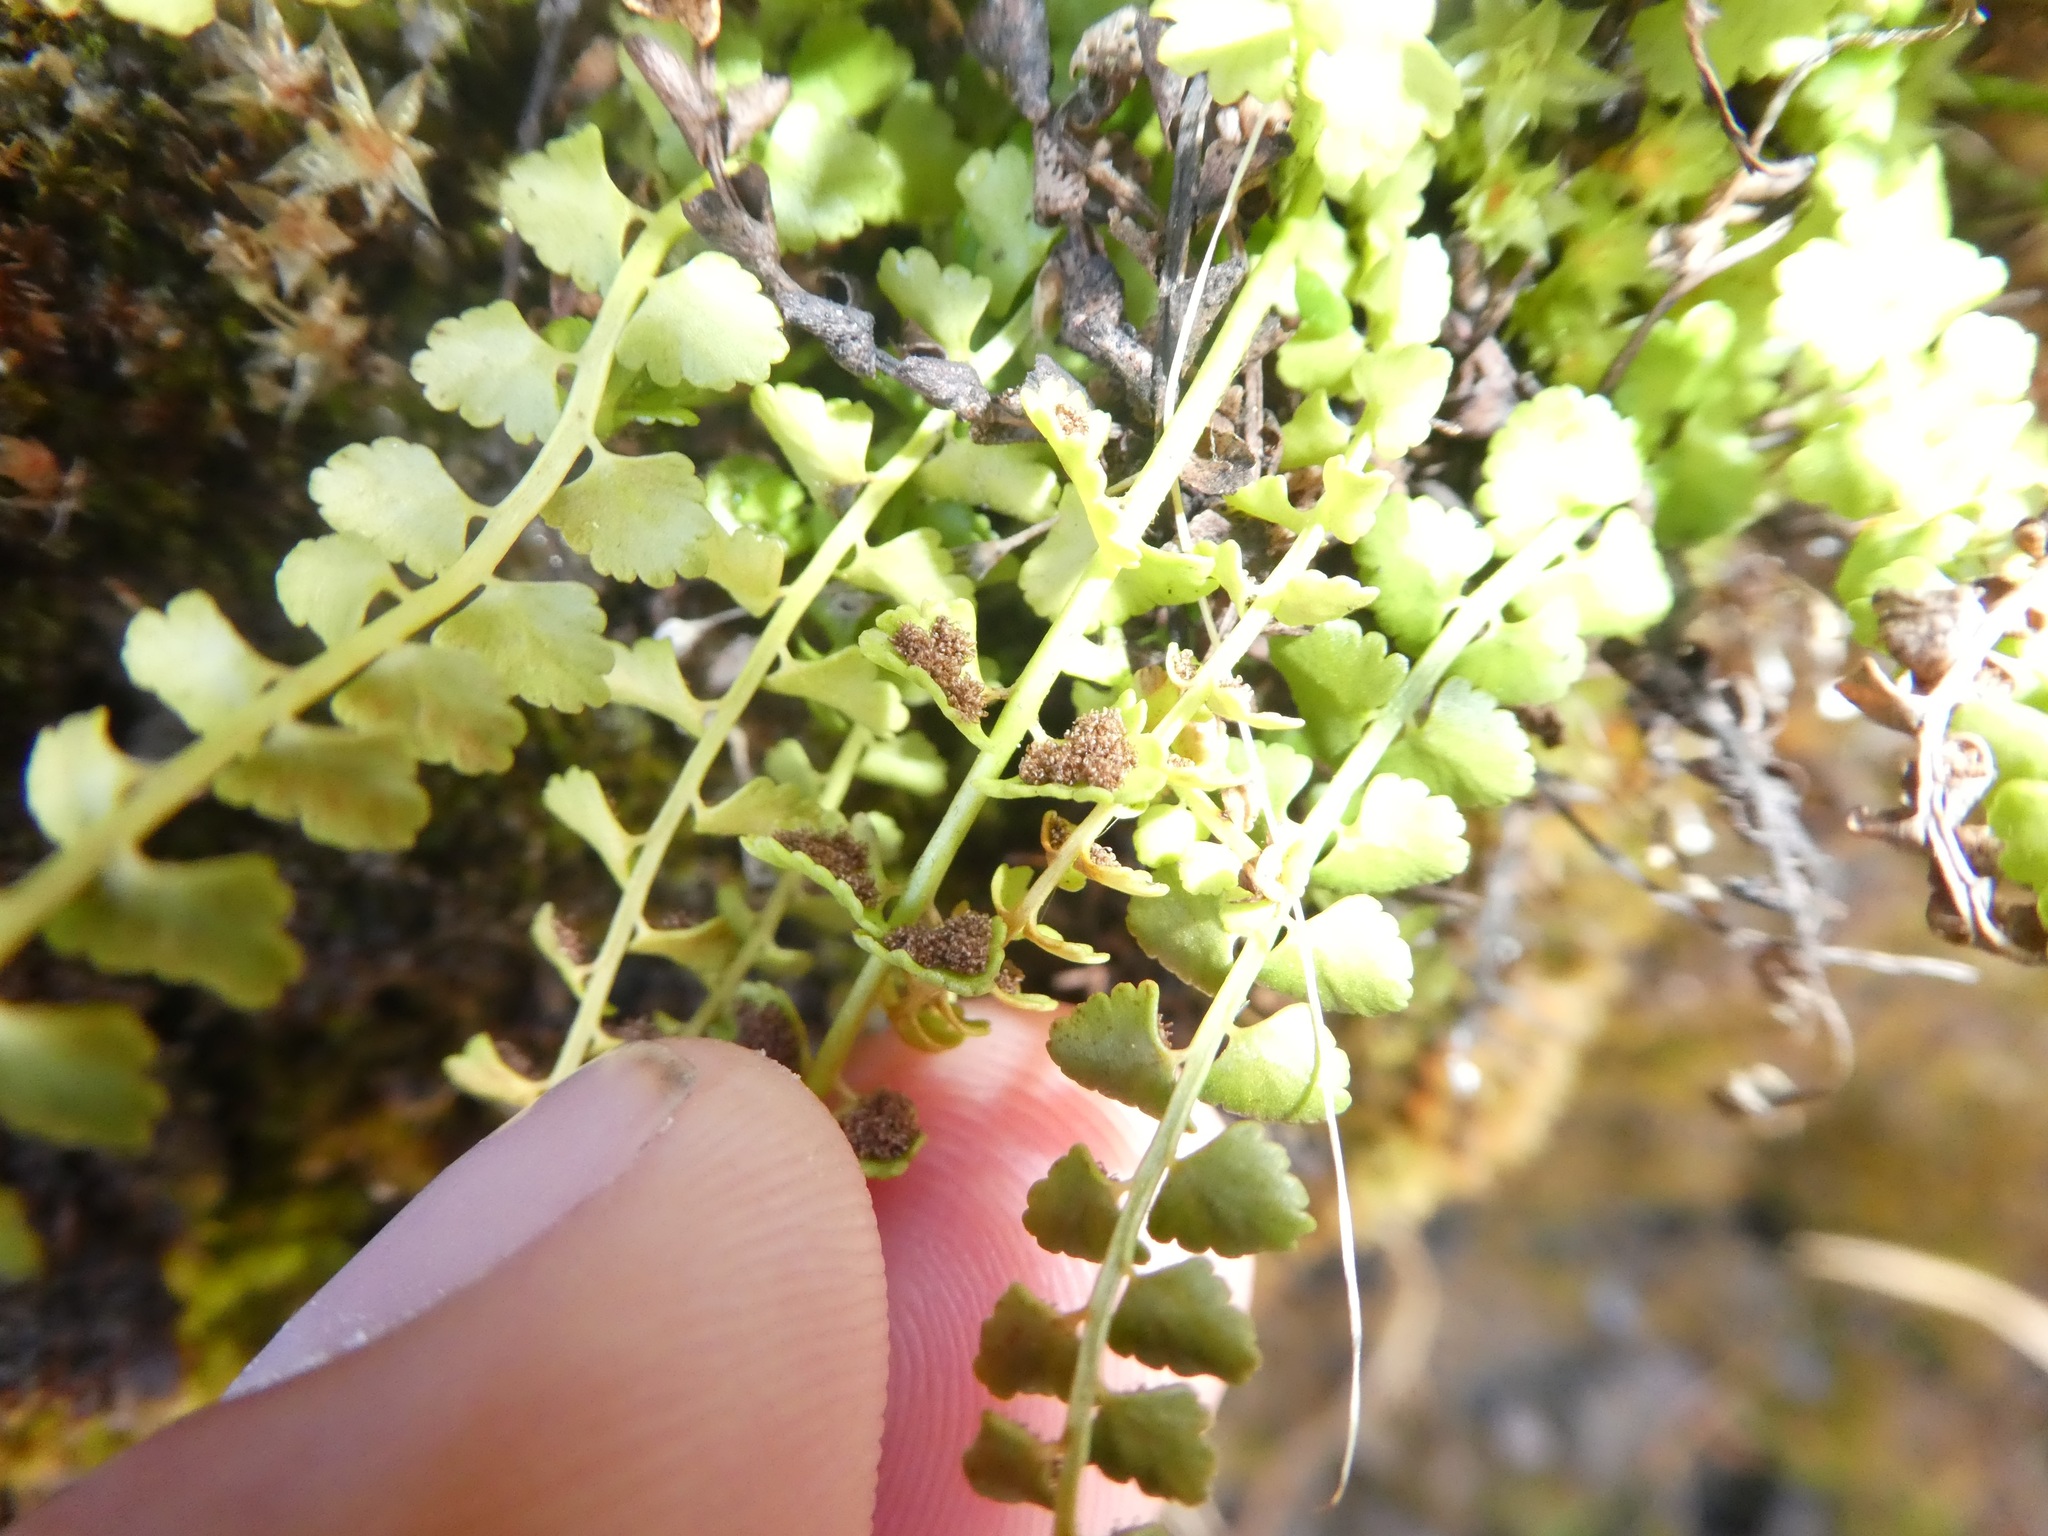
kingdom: Plantae
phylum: Tracheophyta
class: Polypodiopsida
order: Polypodiales
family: Aspleniaceae
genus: Asplenium
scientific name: Asplenium viride
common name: Green spleenwort
